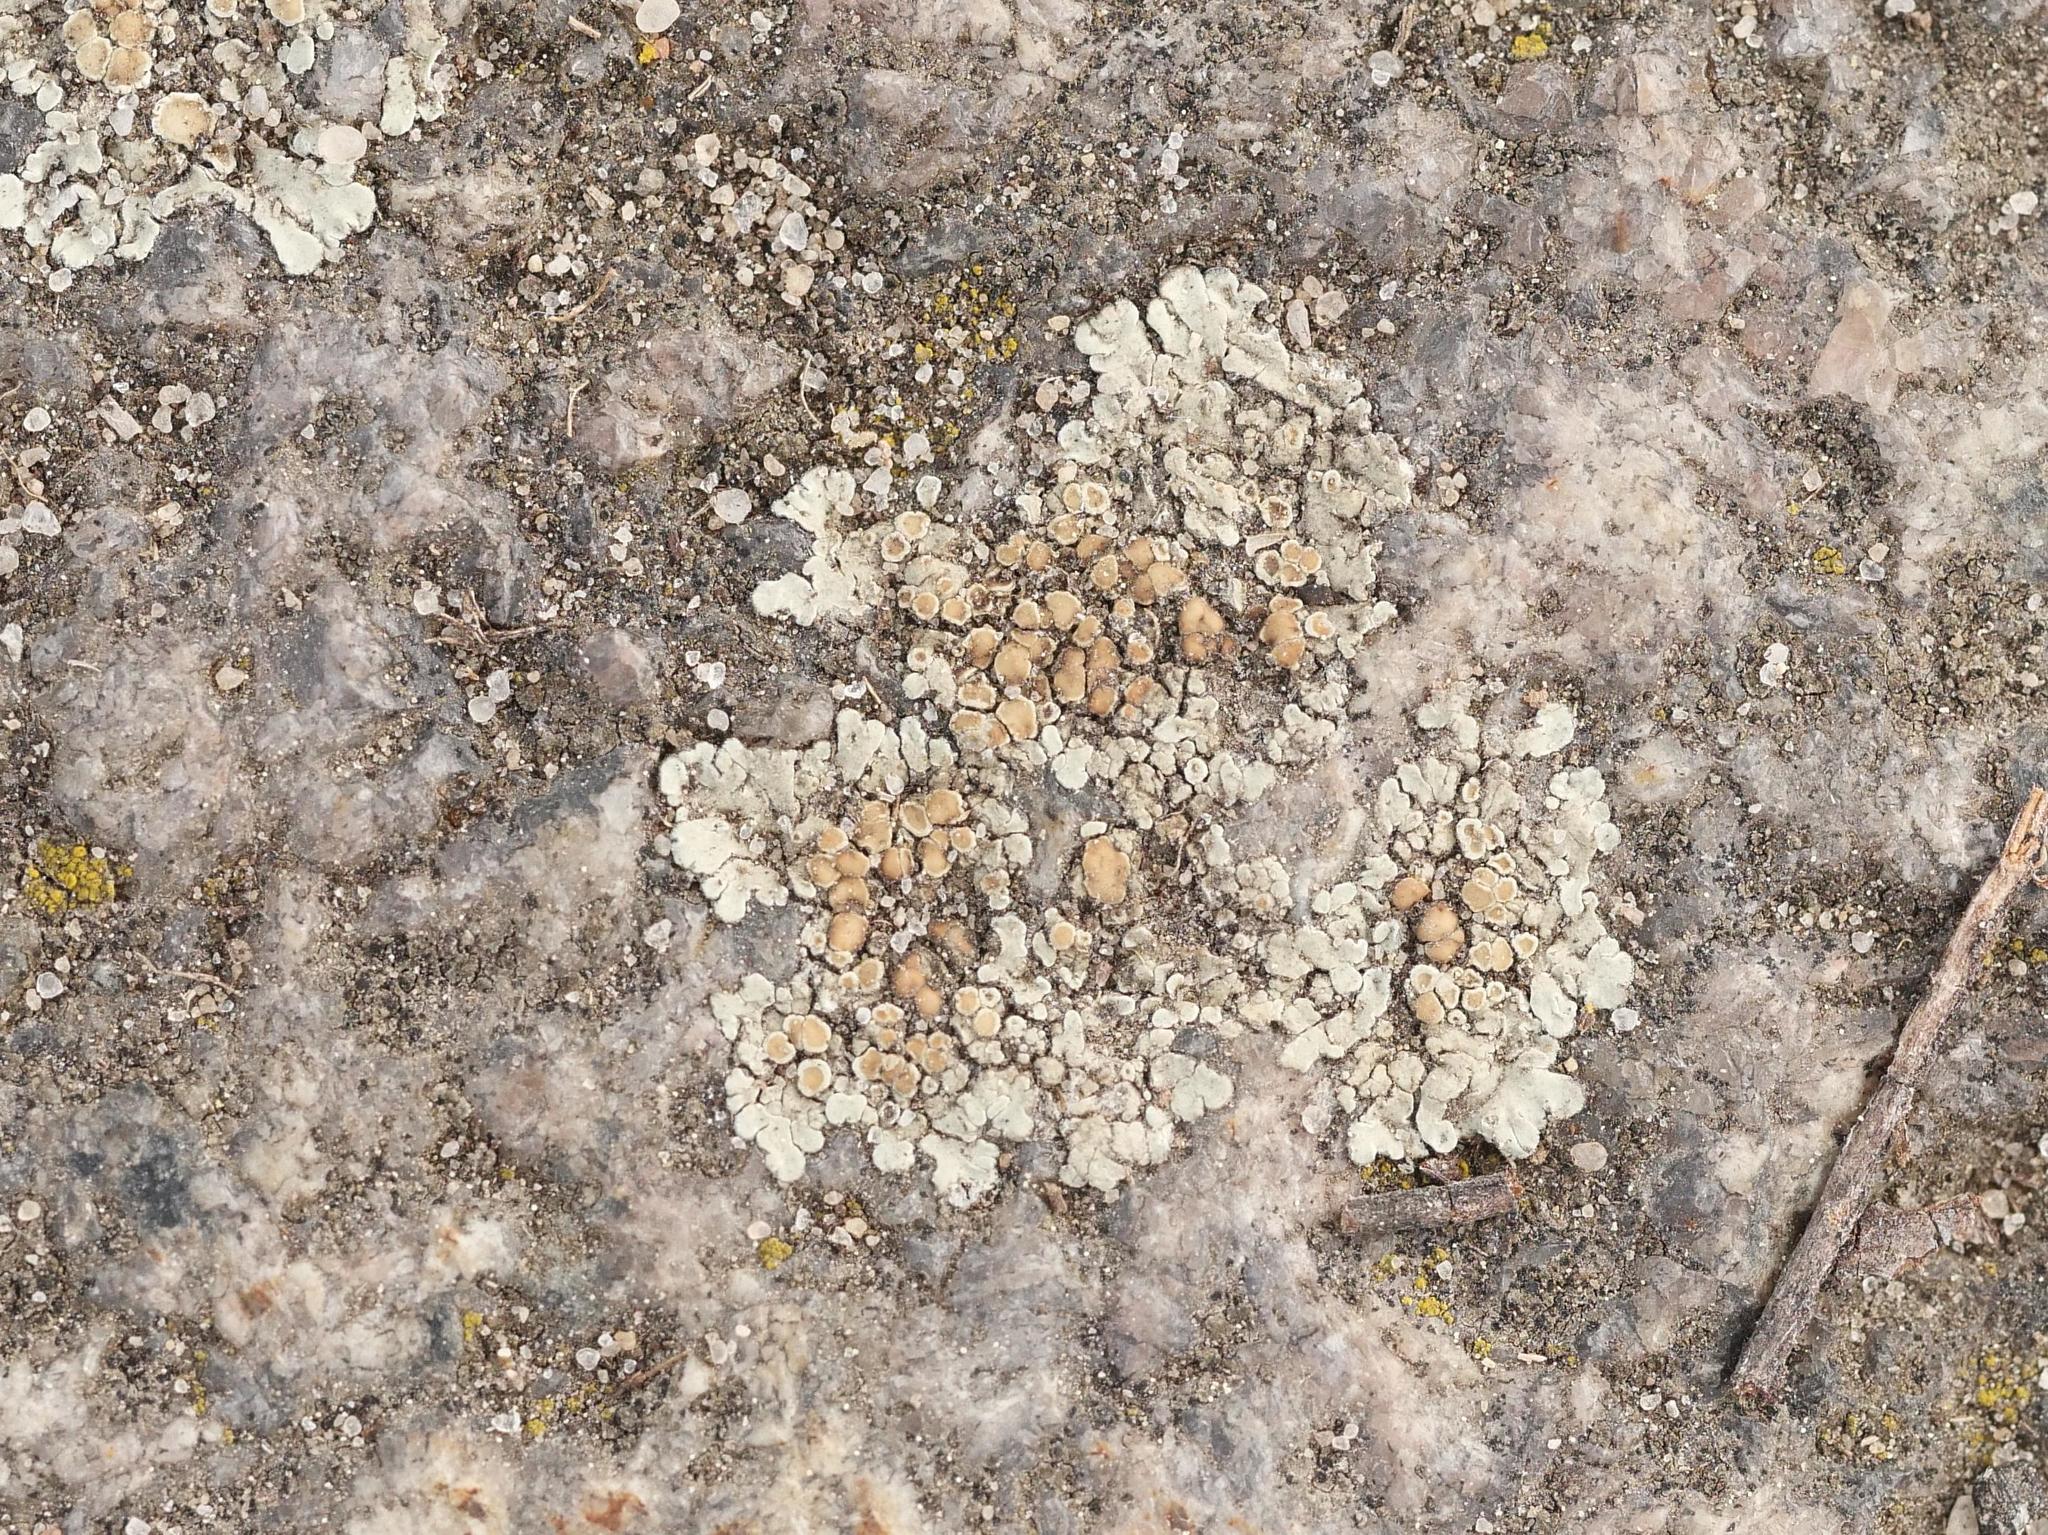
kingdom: Fungi
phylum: Ascomycota
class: Lecanoromycetes
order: Lecanorales
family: Lecanoraceae
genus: Protoparmeliopsis
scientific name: Protoparmeliopsis muralis
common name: Stonewall rim lichen
